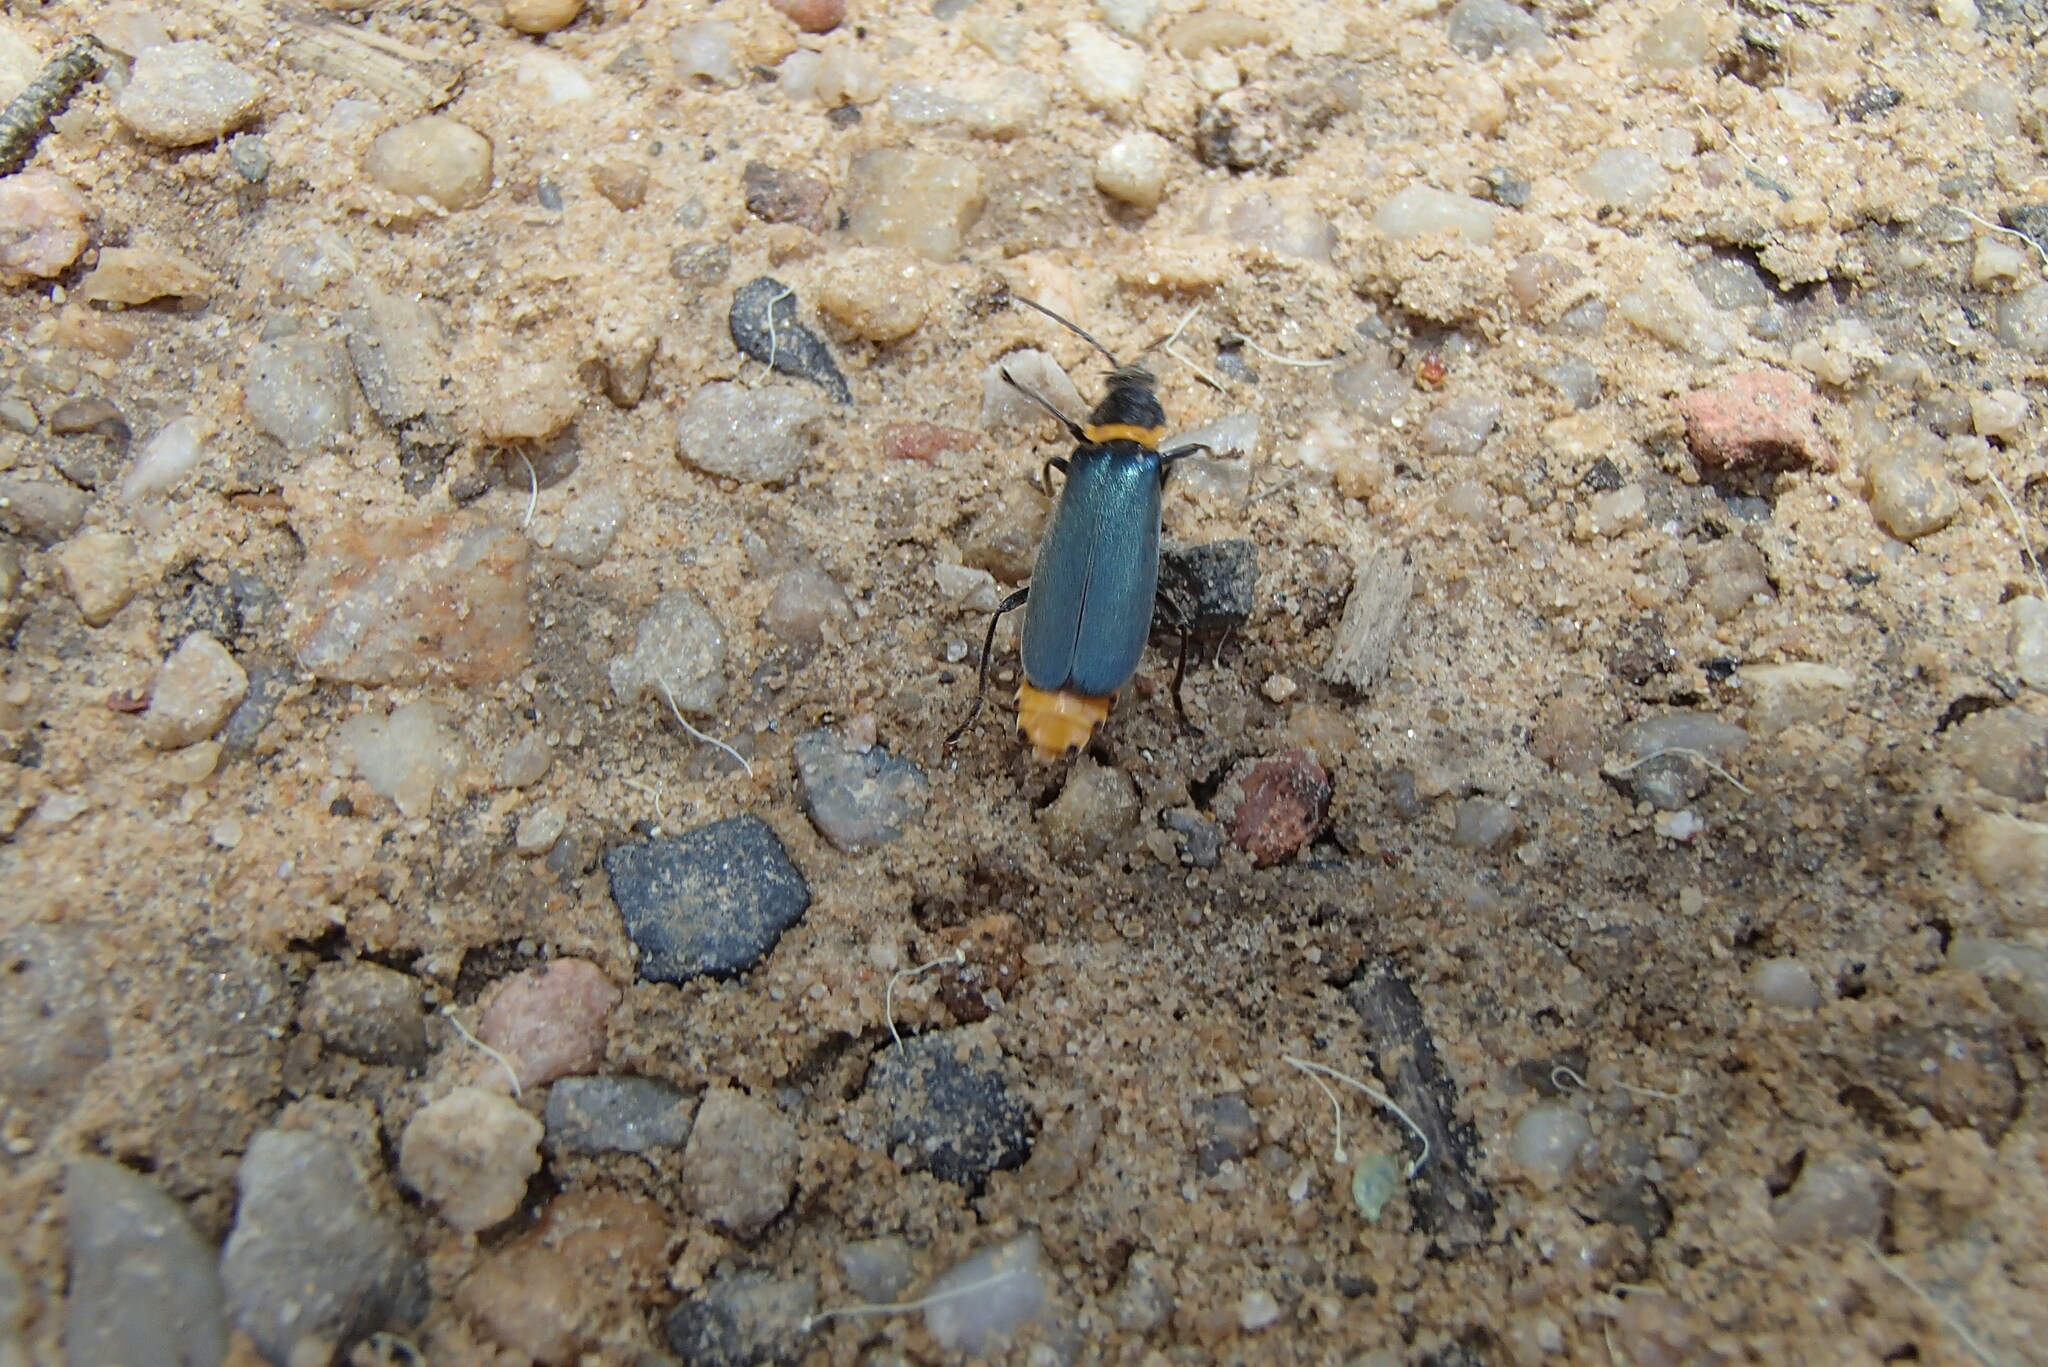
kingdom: Animalia
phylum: Arthropoda
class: Insecta
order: Coleoptera
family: Cantharidae
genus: Chauliognathus
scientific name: Chauliognathus
